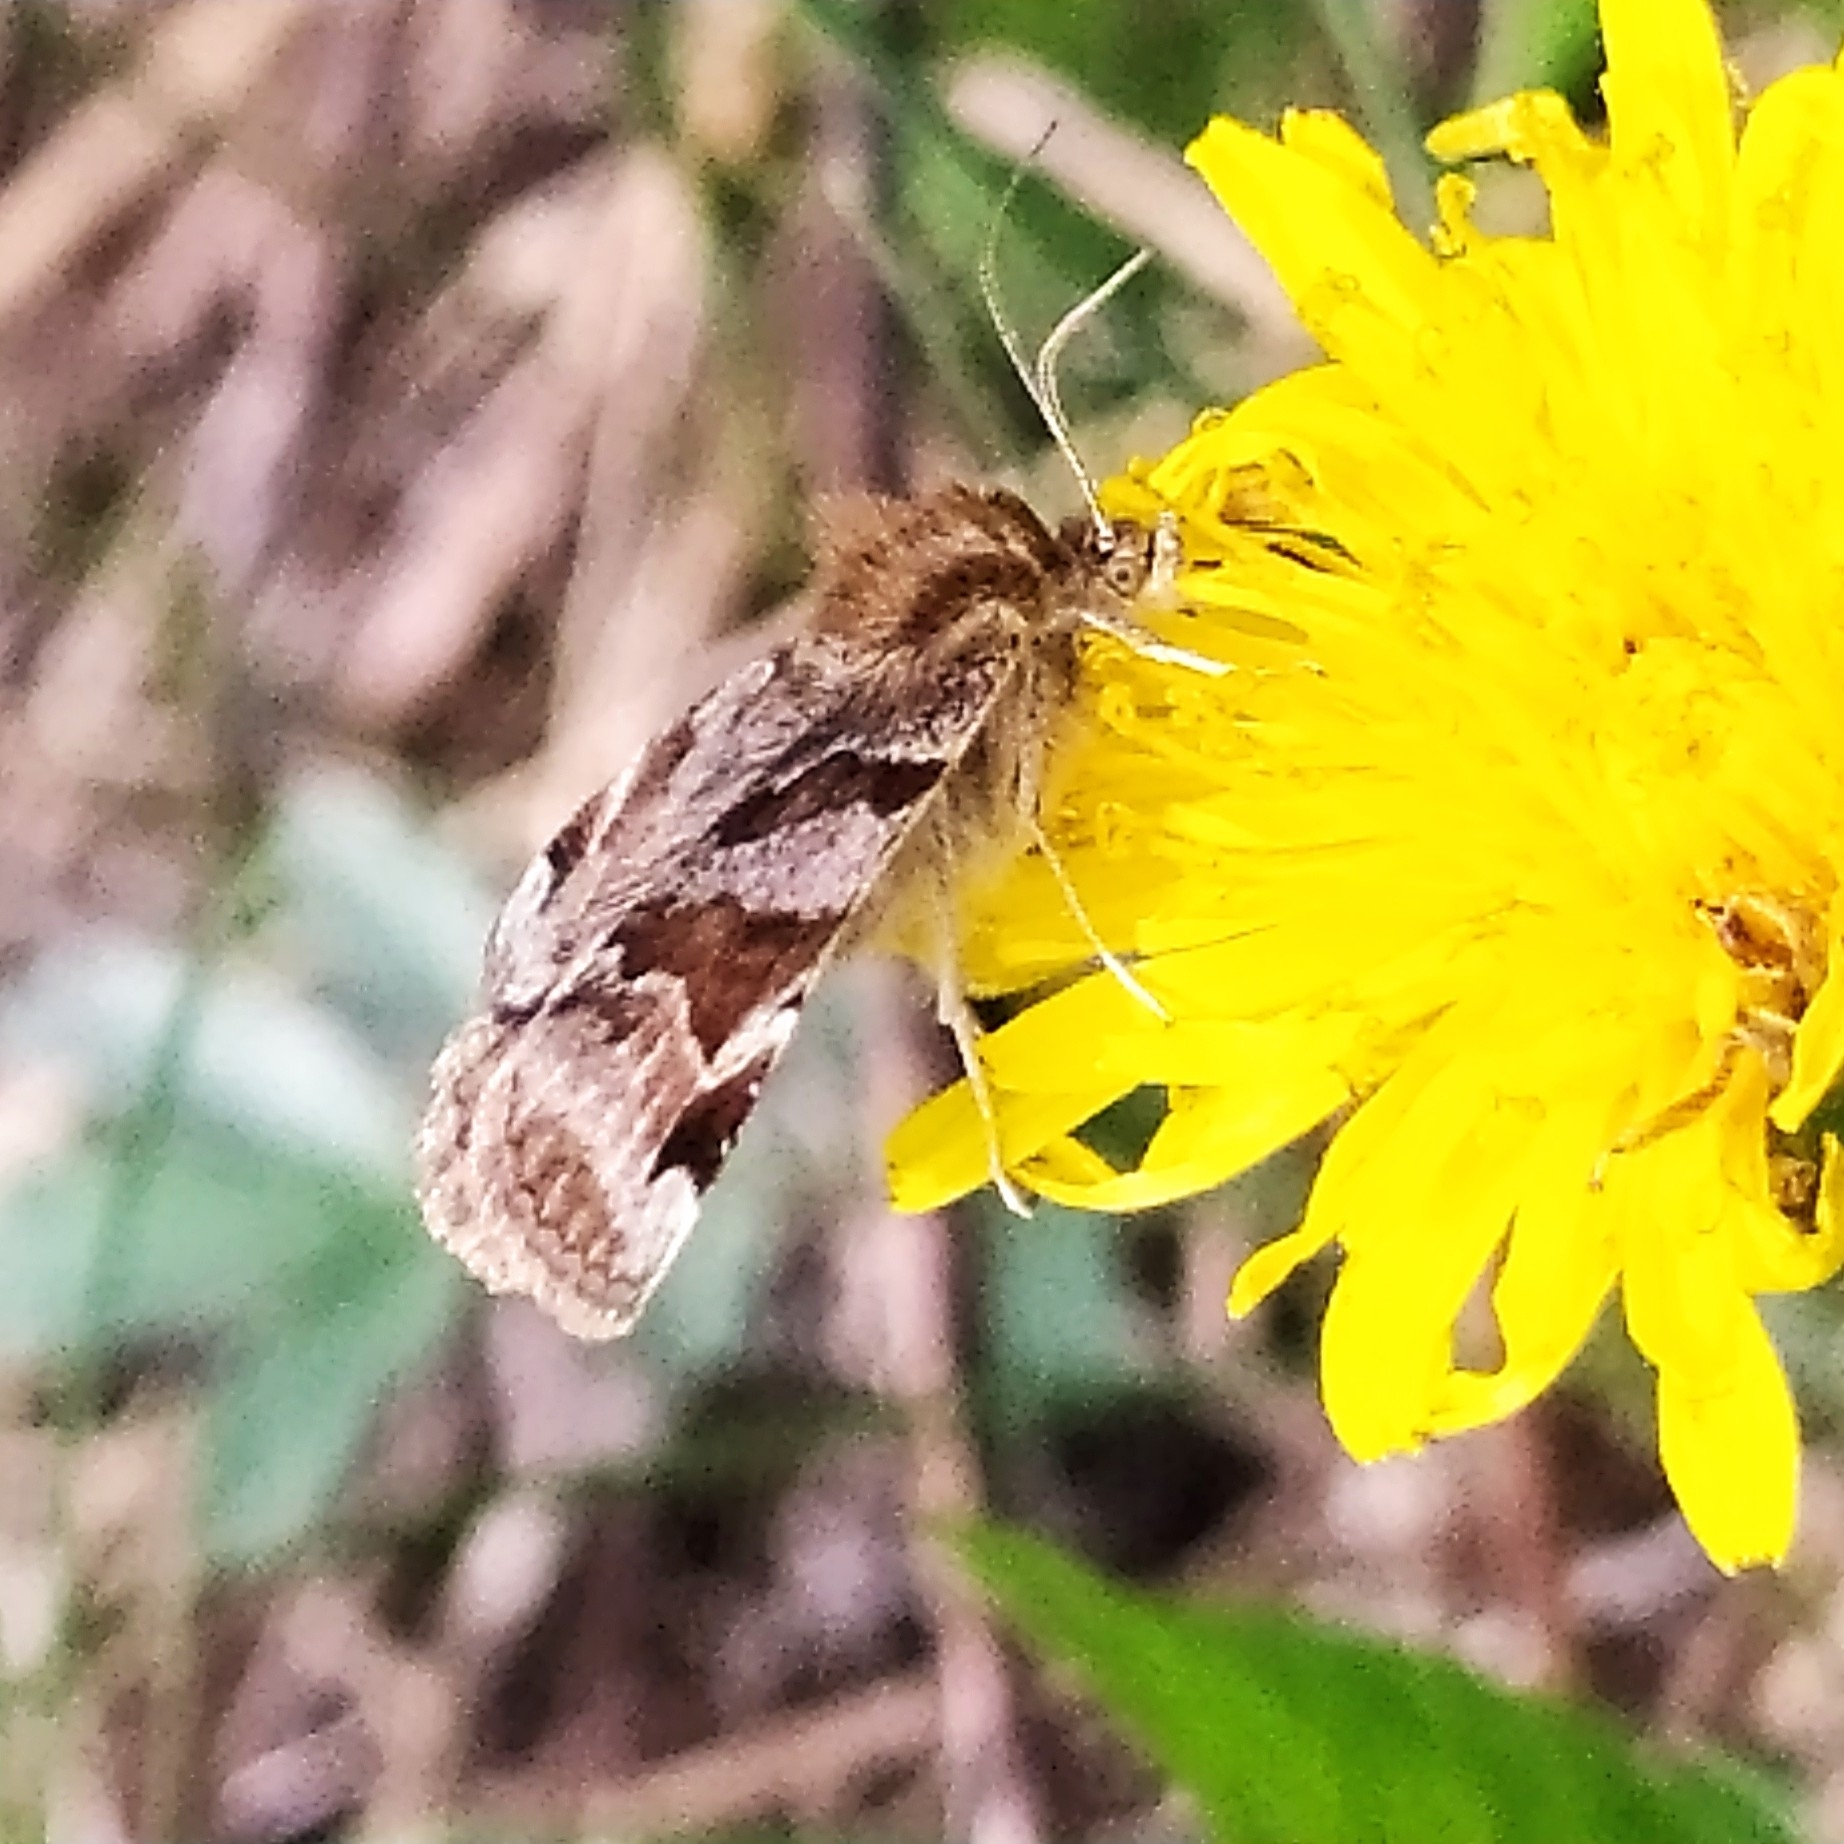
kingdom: Animalia
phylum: Arthropoda
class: Insecta
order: Lepidoptera
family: Erebidae
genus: Euclidia
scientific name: Euclidia glyphica
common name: Burnet companion
